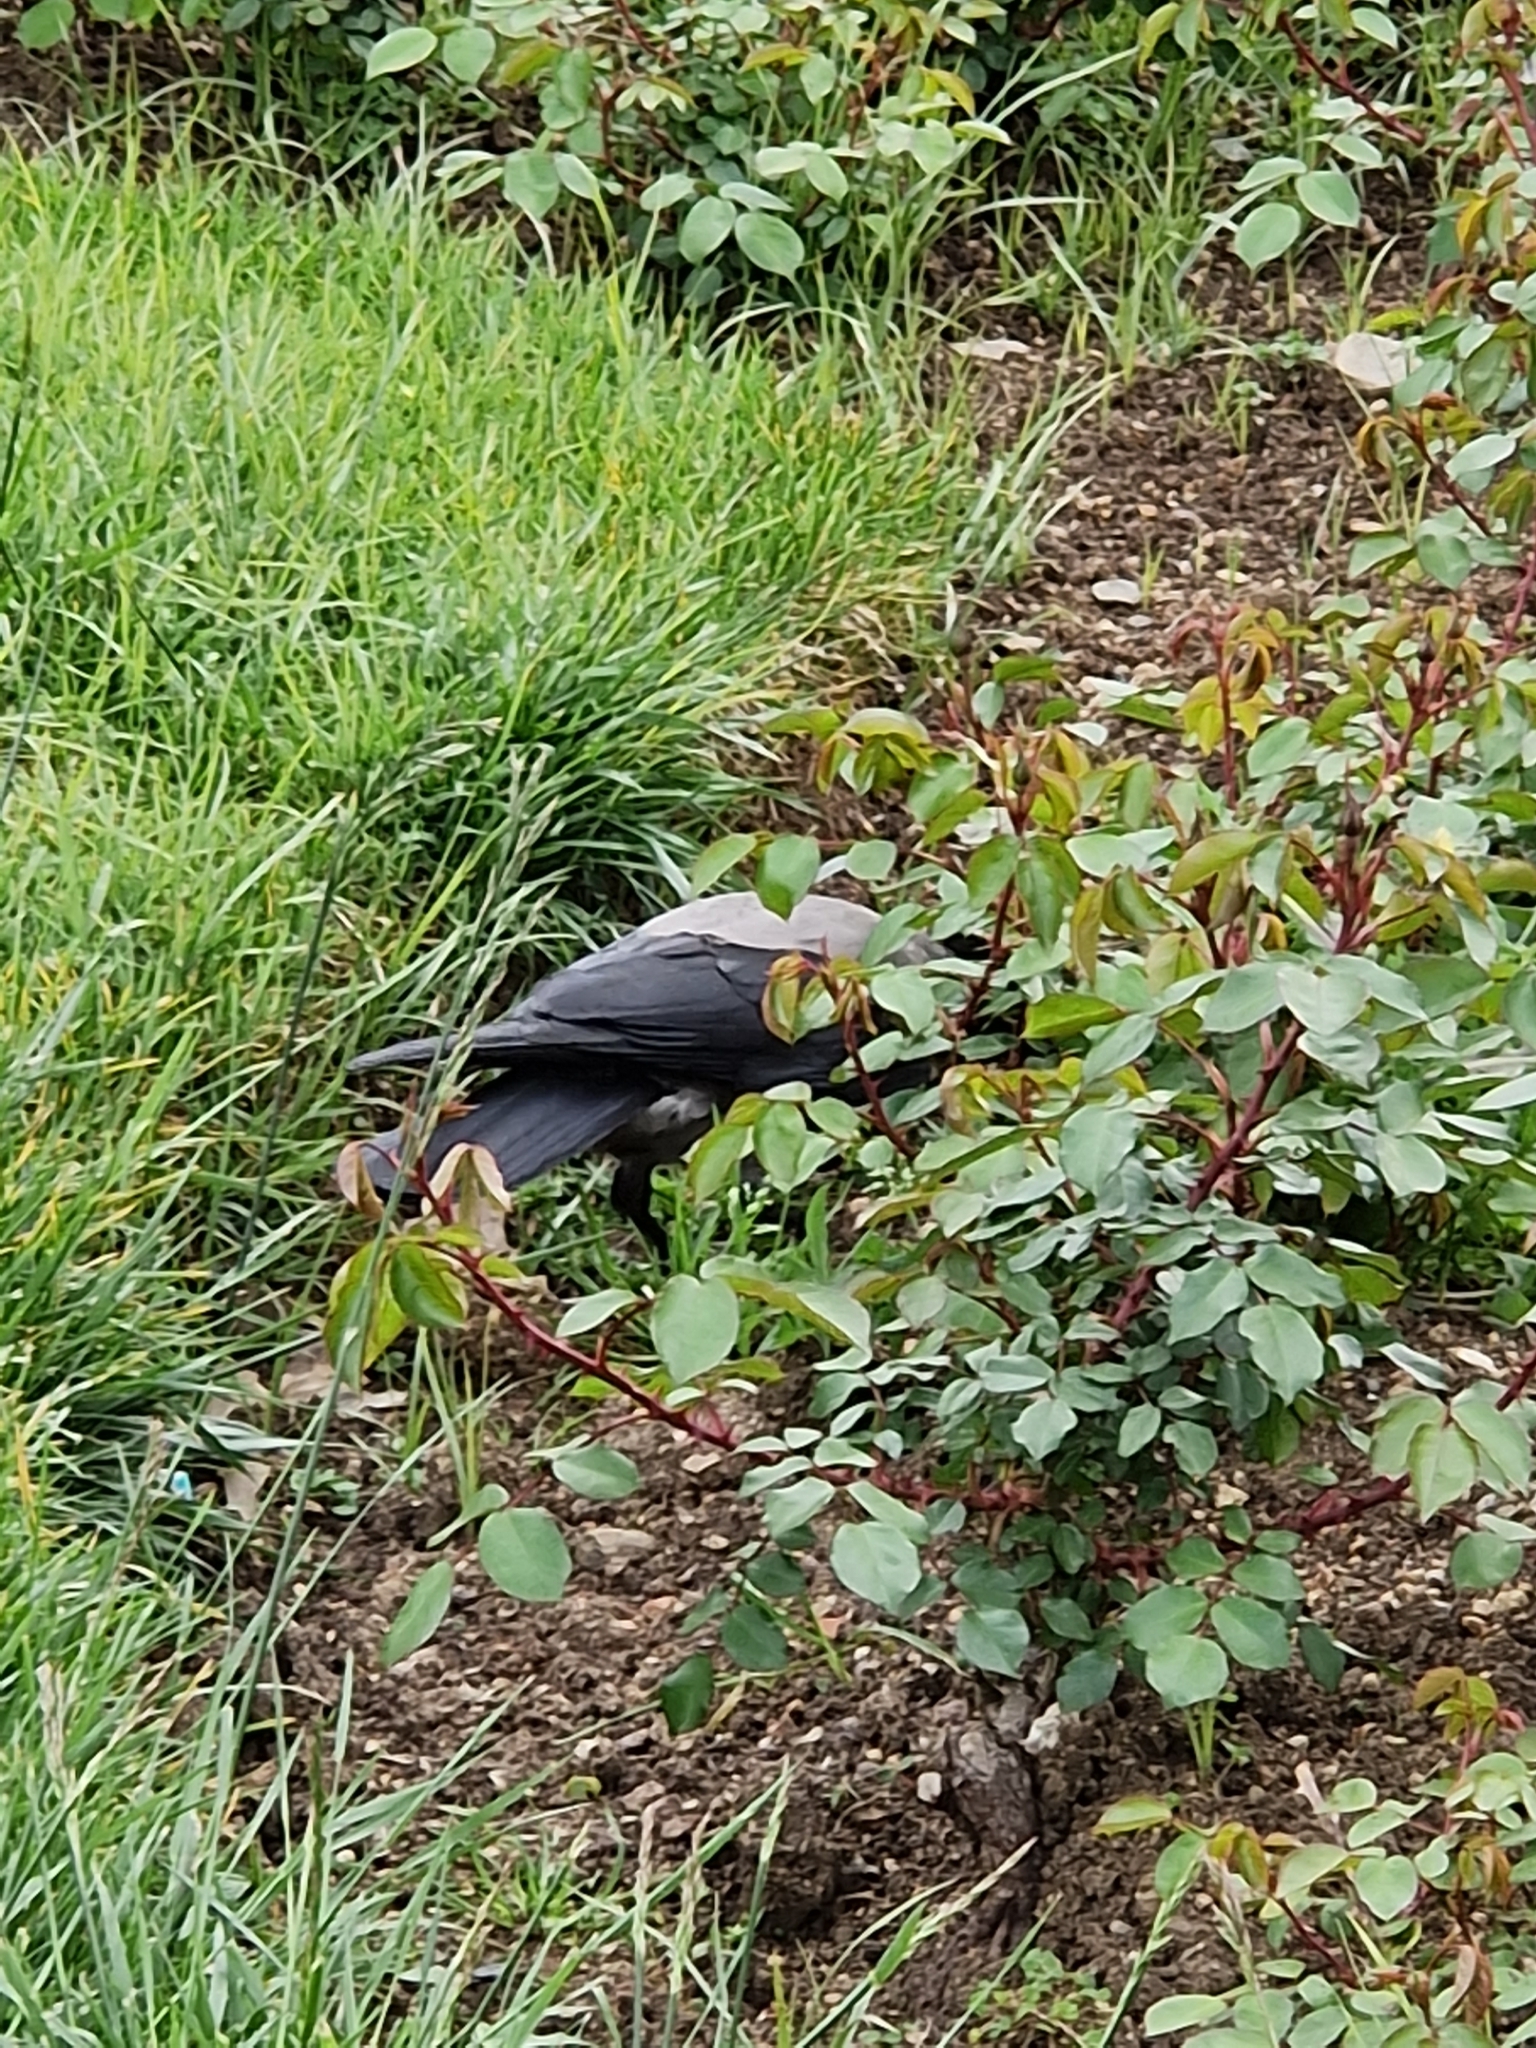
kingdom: Animalia
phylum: Chordata
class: Aves
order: Passeriformes
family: Corvidae
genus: Corvus
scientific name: Corvus cornix
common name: Hooded crow
